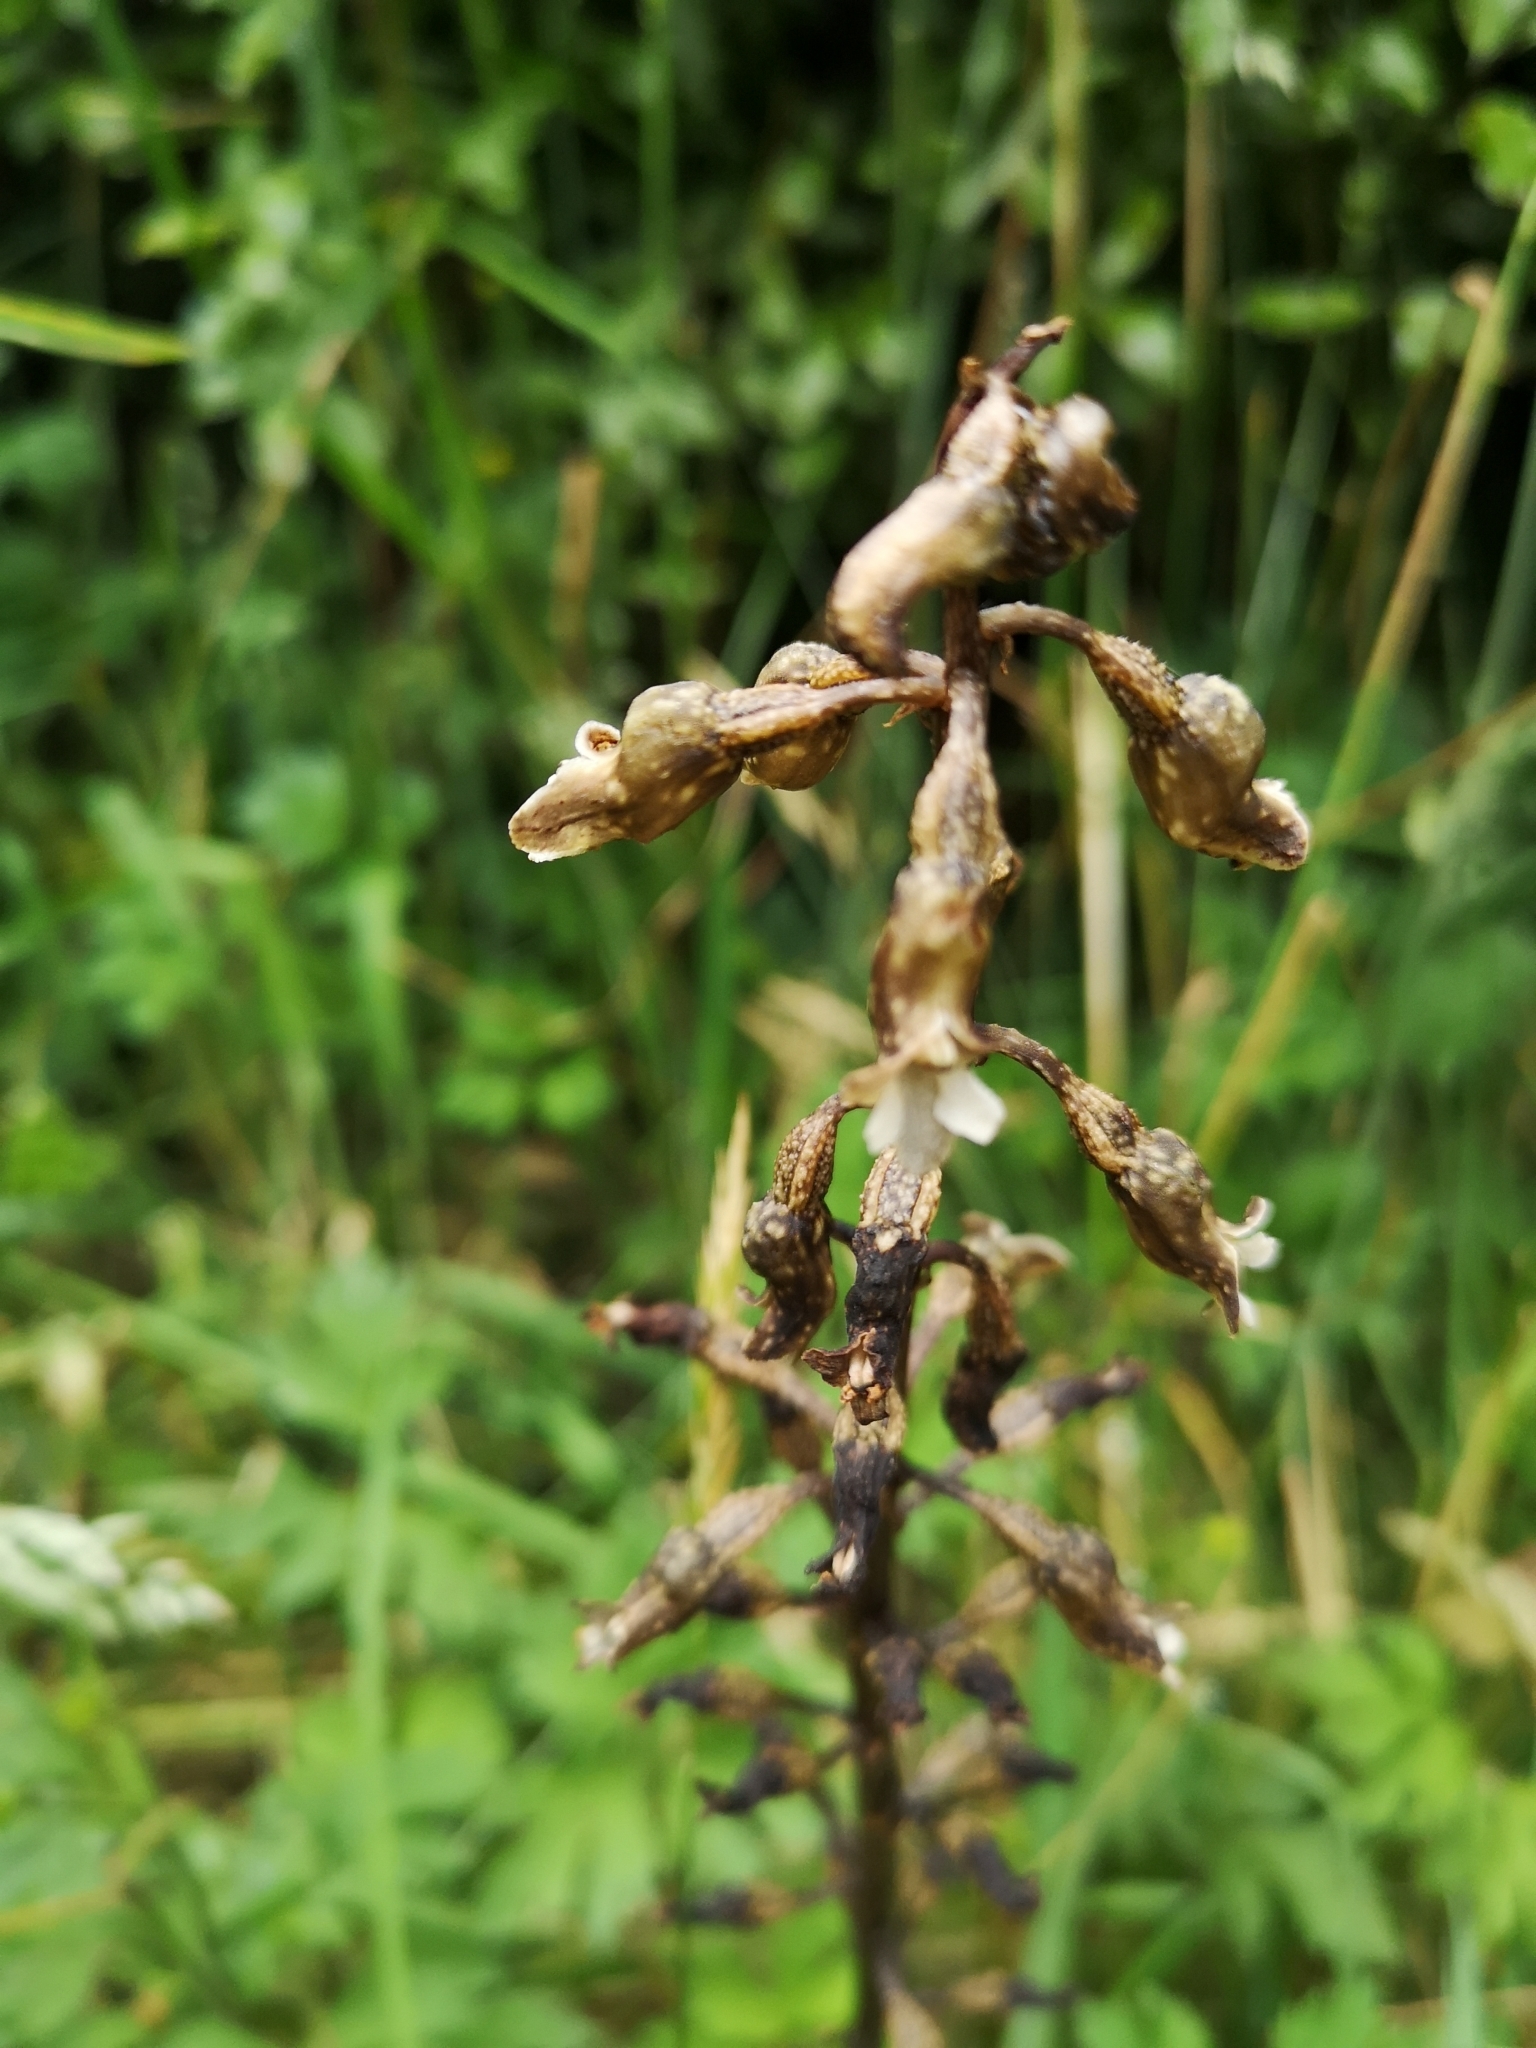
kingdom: Plantae
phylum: Tracheophyta
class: Liliopsida
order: Asparagales
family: Orchidaceae
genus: Gastrodia
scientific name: Gastrodia cunninghamii
